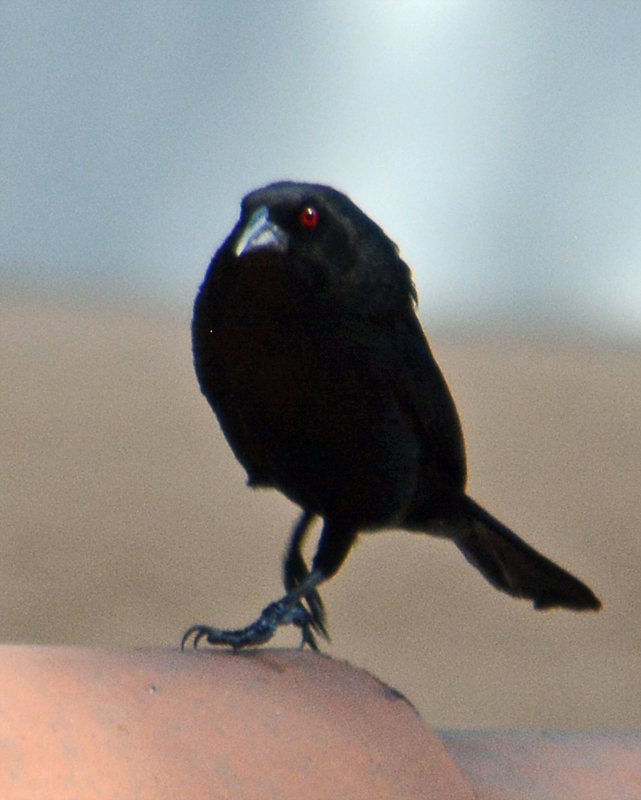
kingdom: Animalia
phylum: Chordata
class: Aves
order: Passeriformes
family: Icteridae
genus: Molothrus
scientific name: Molothrus aeneus
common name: Bronzed cowbird
